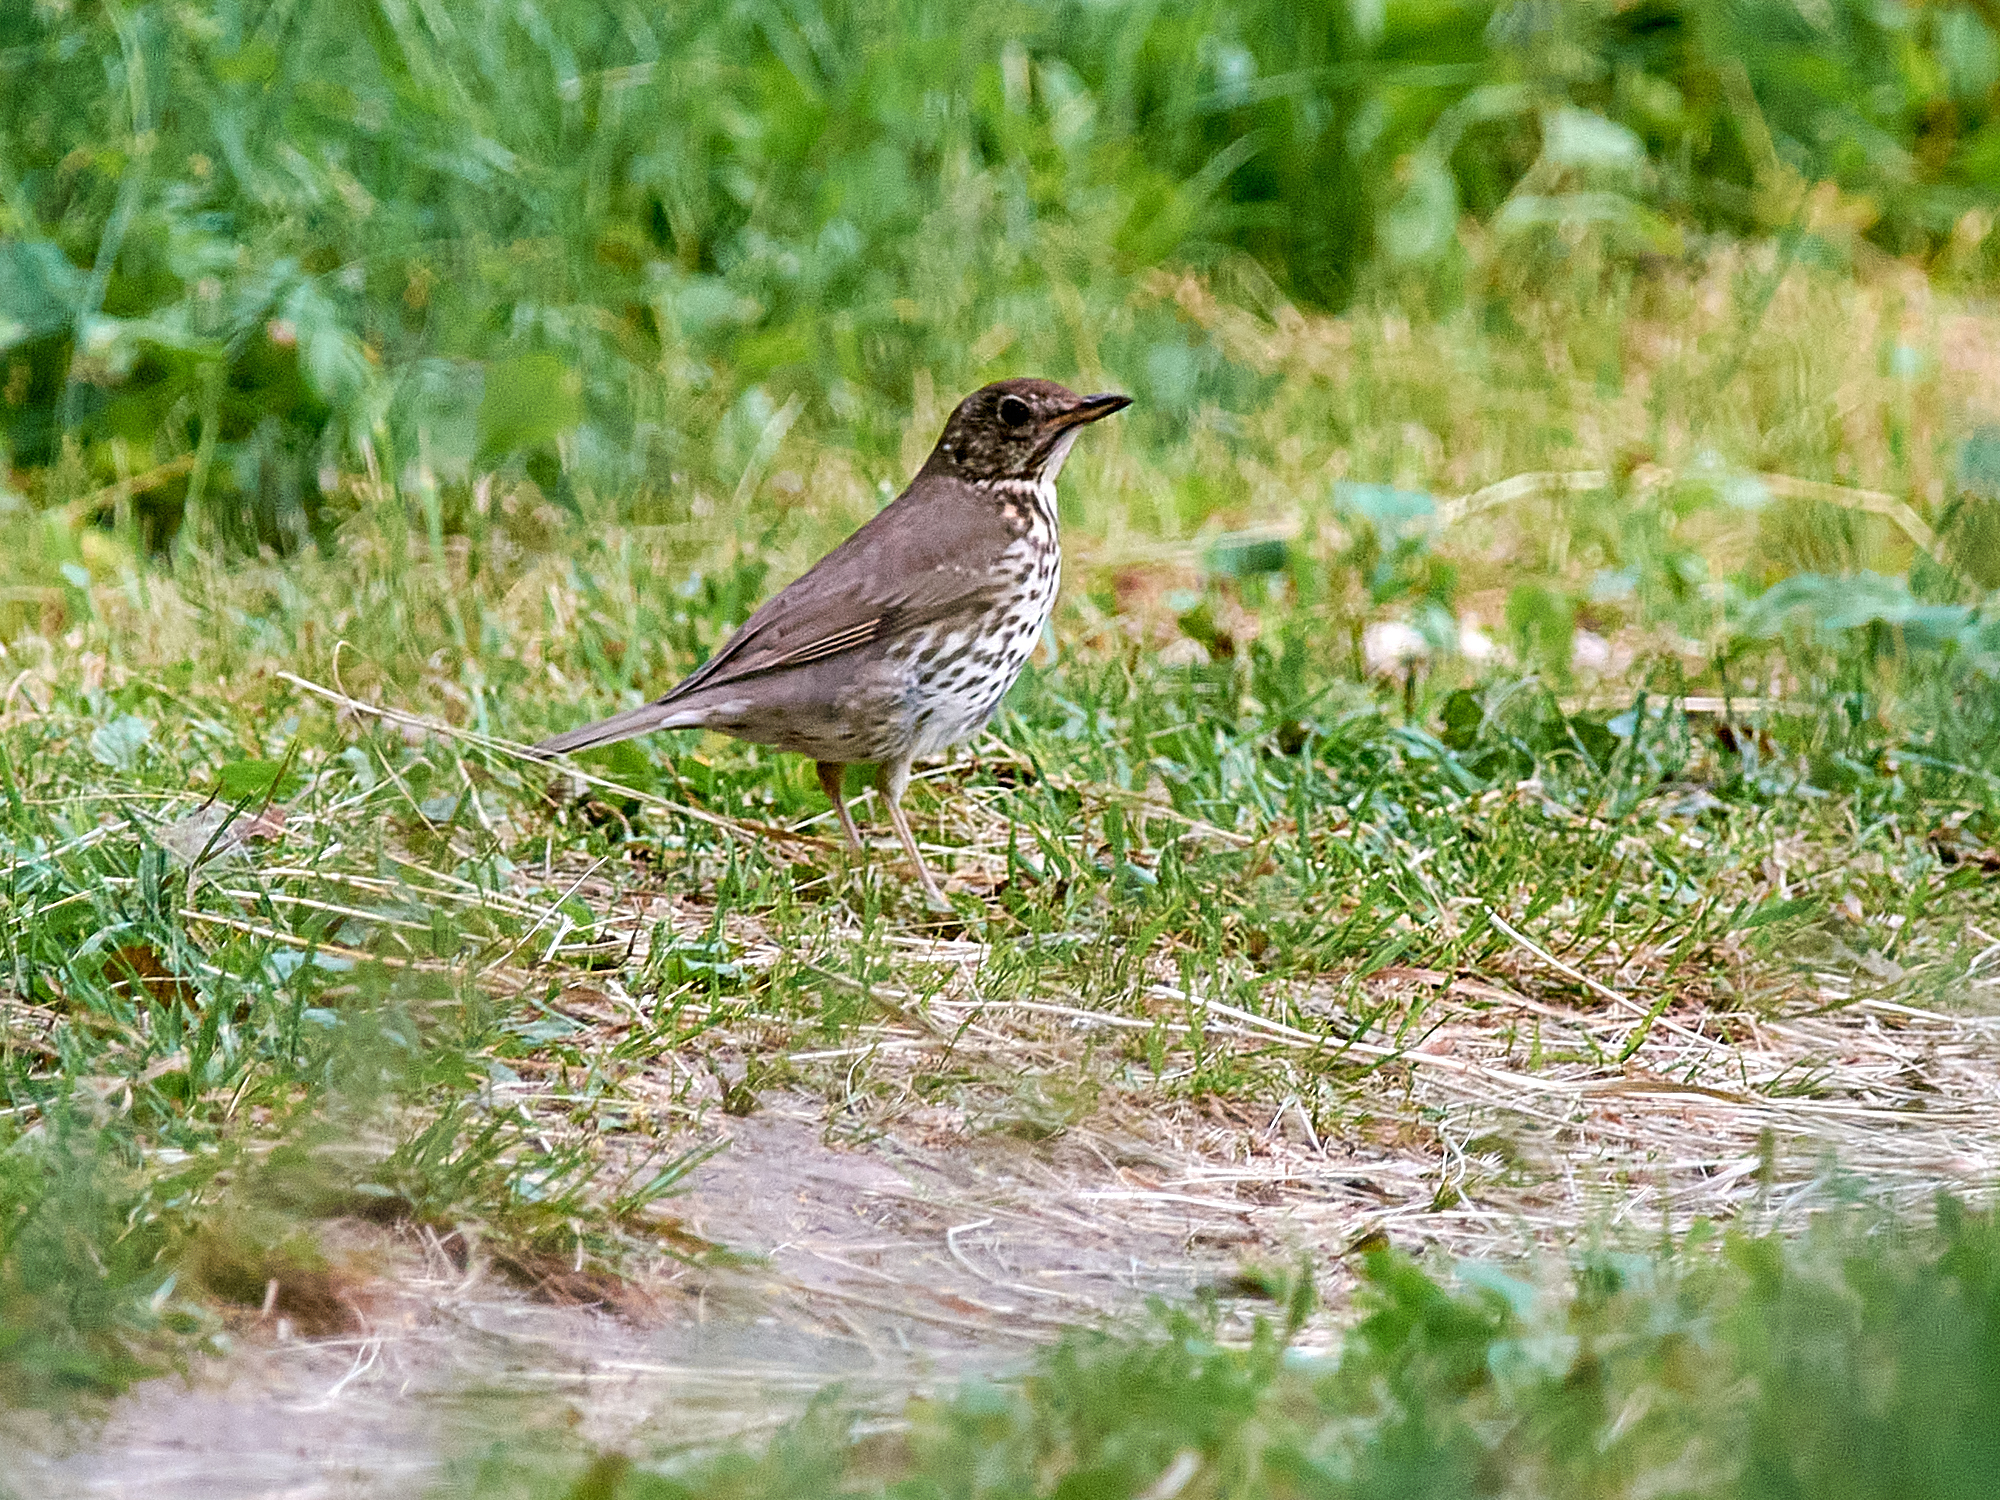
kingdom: Animalia
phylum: Chordata
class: Aves
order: Passeriformes
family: Turdidae
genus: Turdus
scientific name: Turdus philomelos
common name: Song thrush
